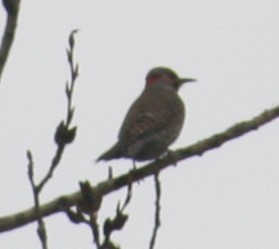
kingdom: Animalia
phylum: Chordata
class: Aves
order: Piciformes
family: Picidae
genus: Colaptes
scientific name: Colaptes auratus
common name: Northern flicker
